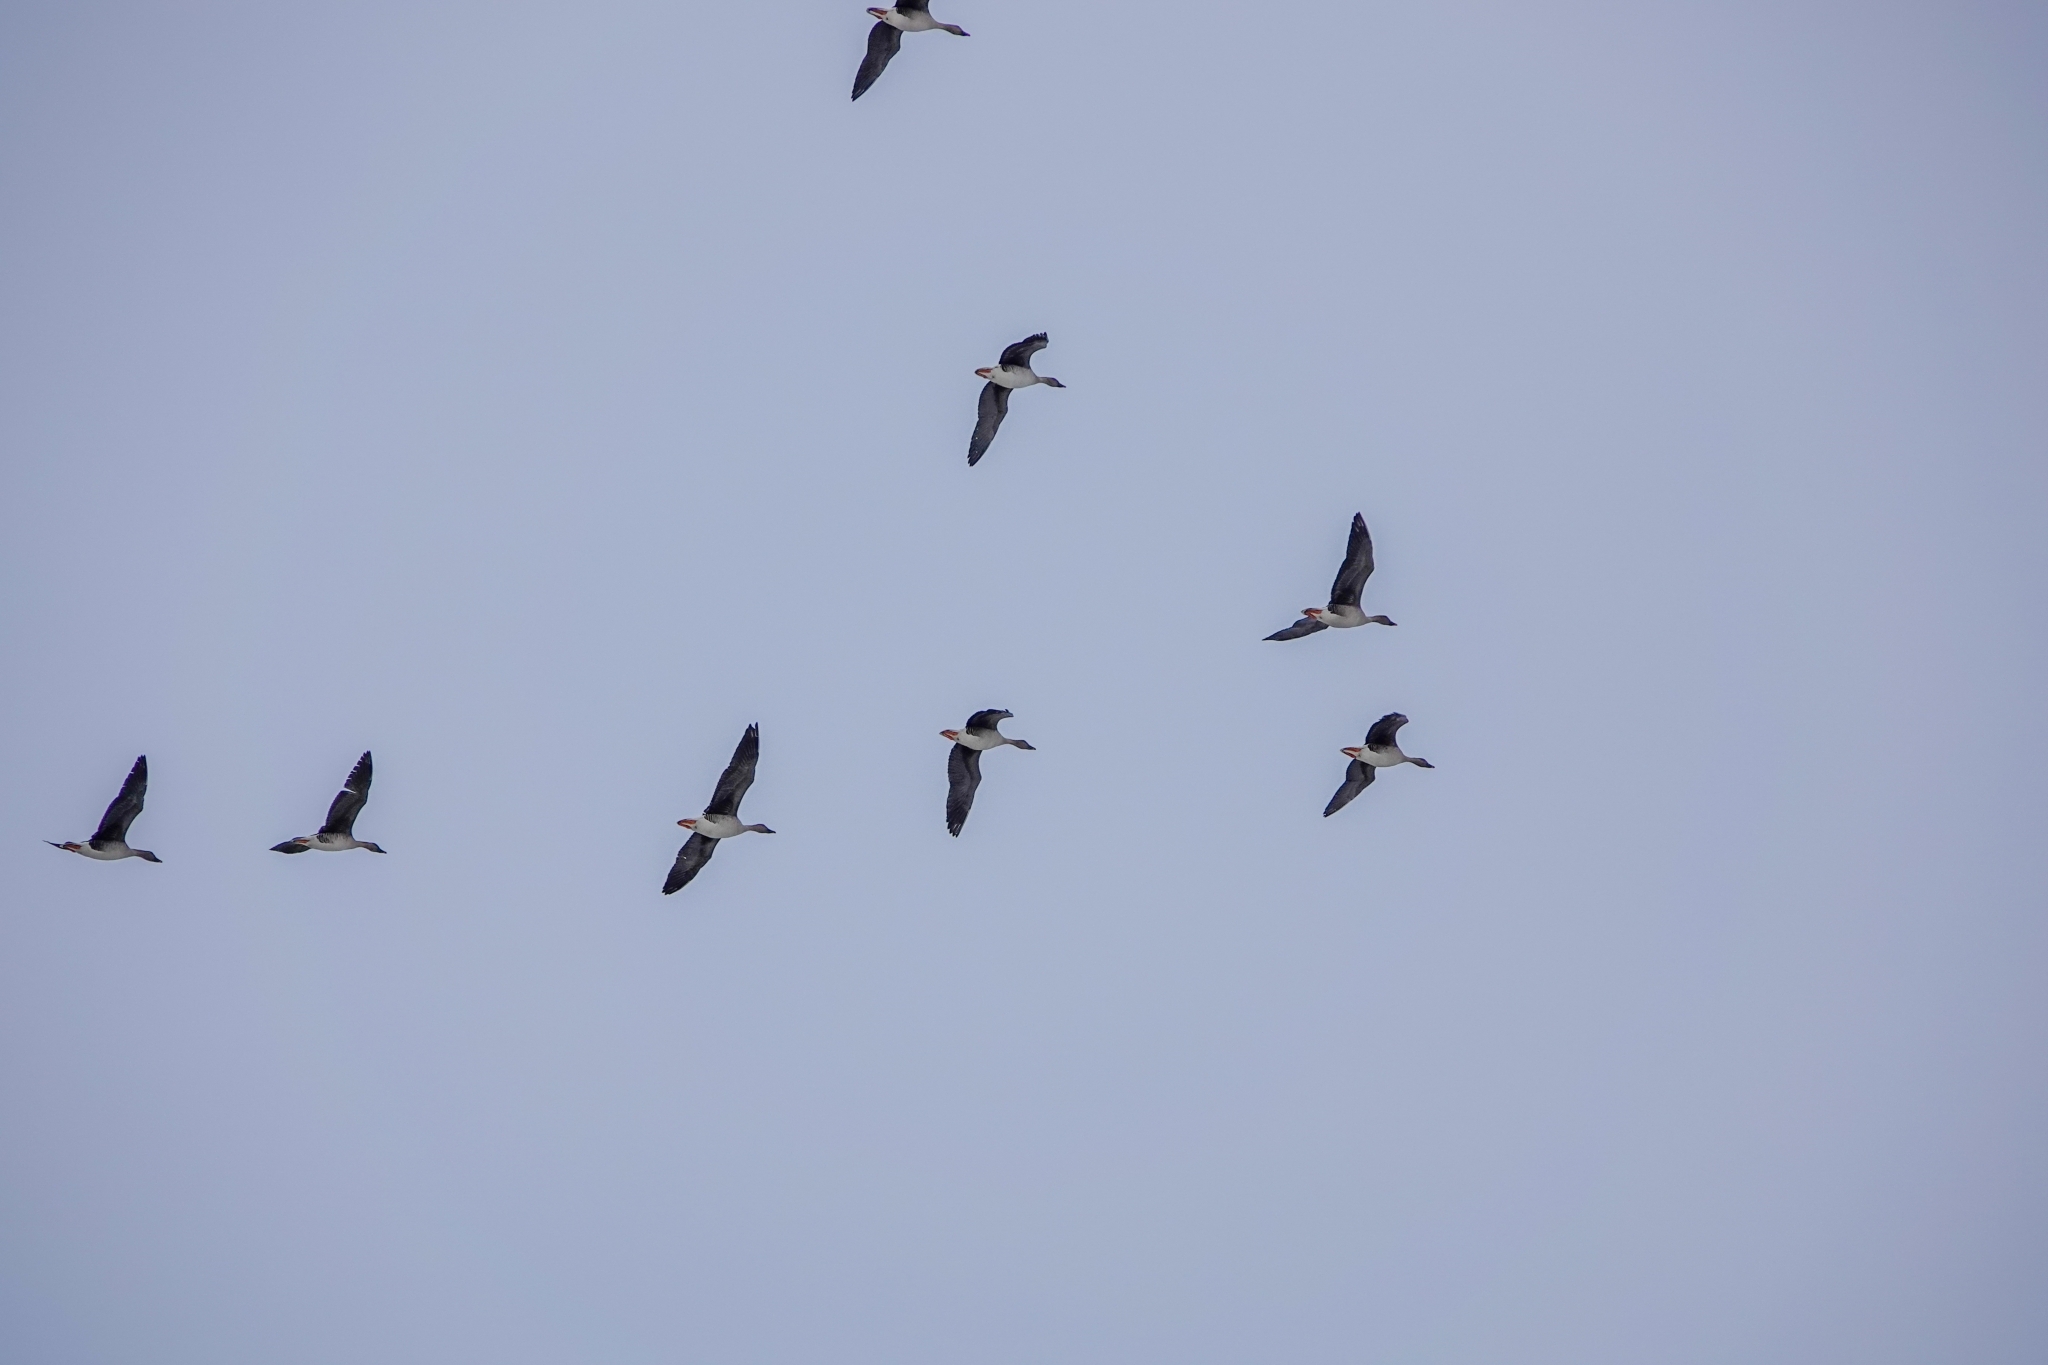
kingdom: Animalia
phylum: Chordata
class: Aves
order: Anseriformes
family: Anatidae
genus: Anser
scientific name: Anser fabalis
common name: Bean goose
